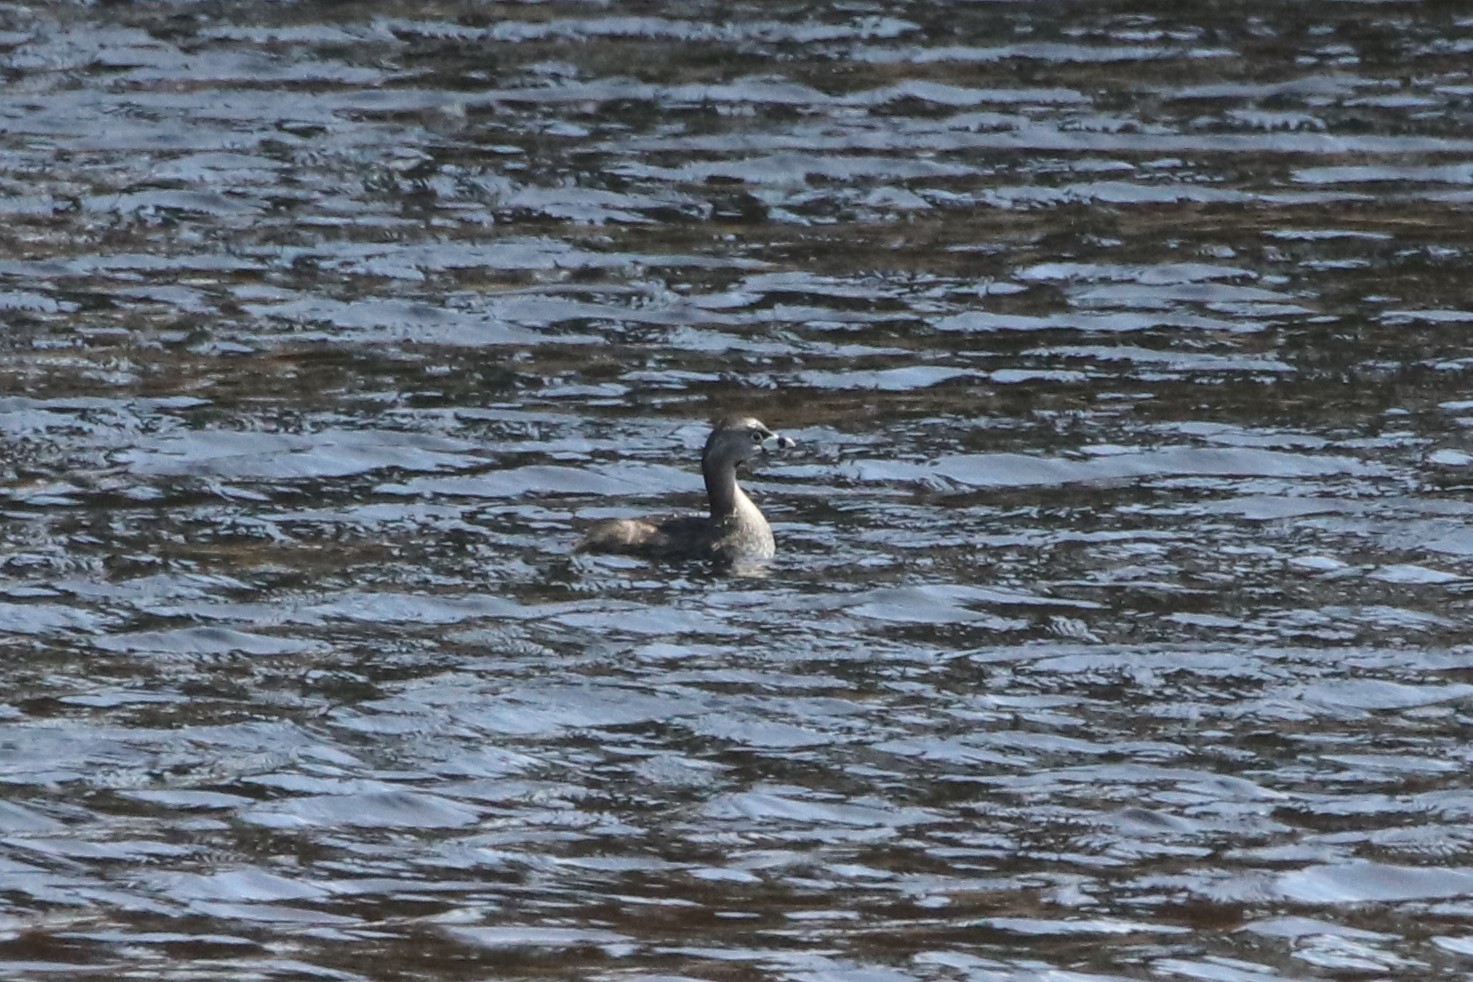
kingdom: Animalia
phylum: Chordata
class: Aves
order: Podicipediformes
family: Podicipedidae
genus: Podilymbus
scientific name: Podilymbus podiceps
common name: Pied-billed grebe
